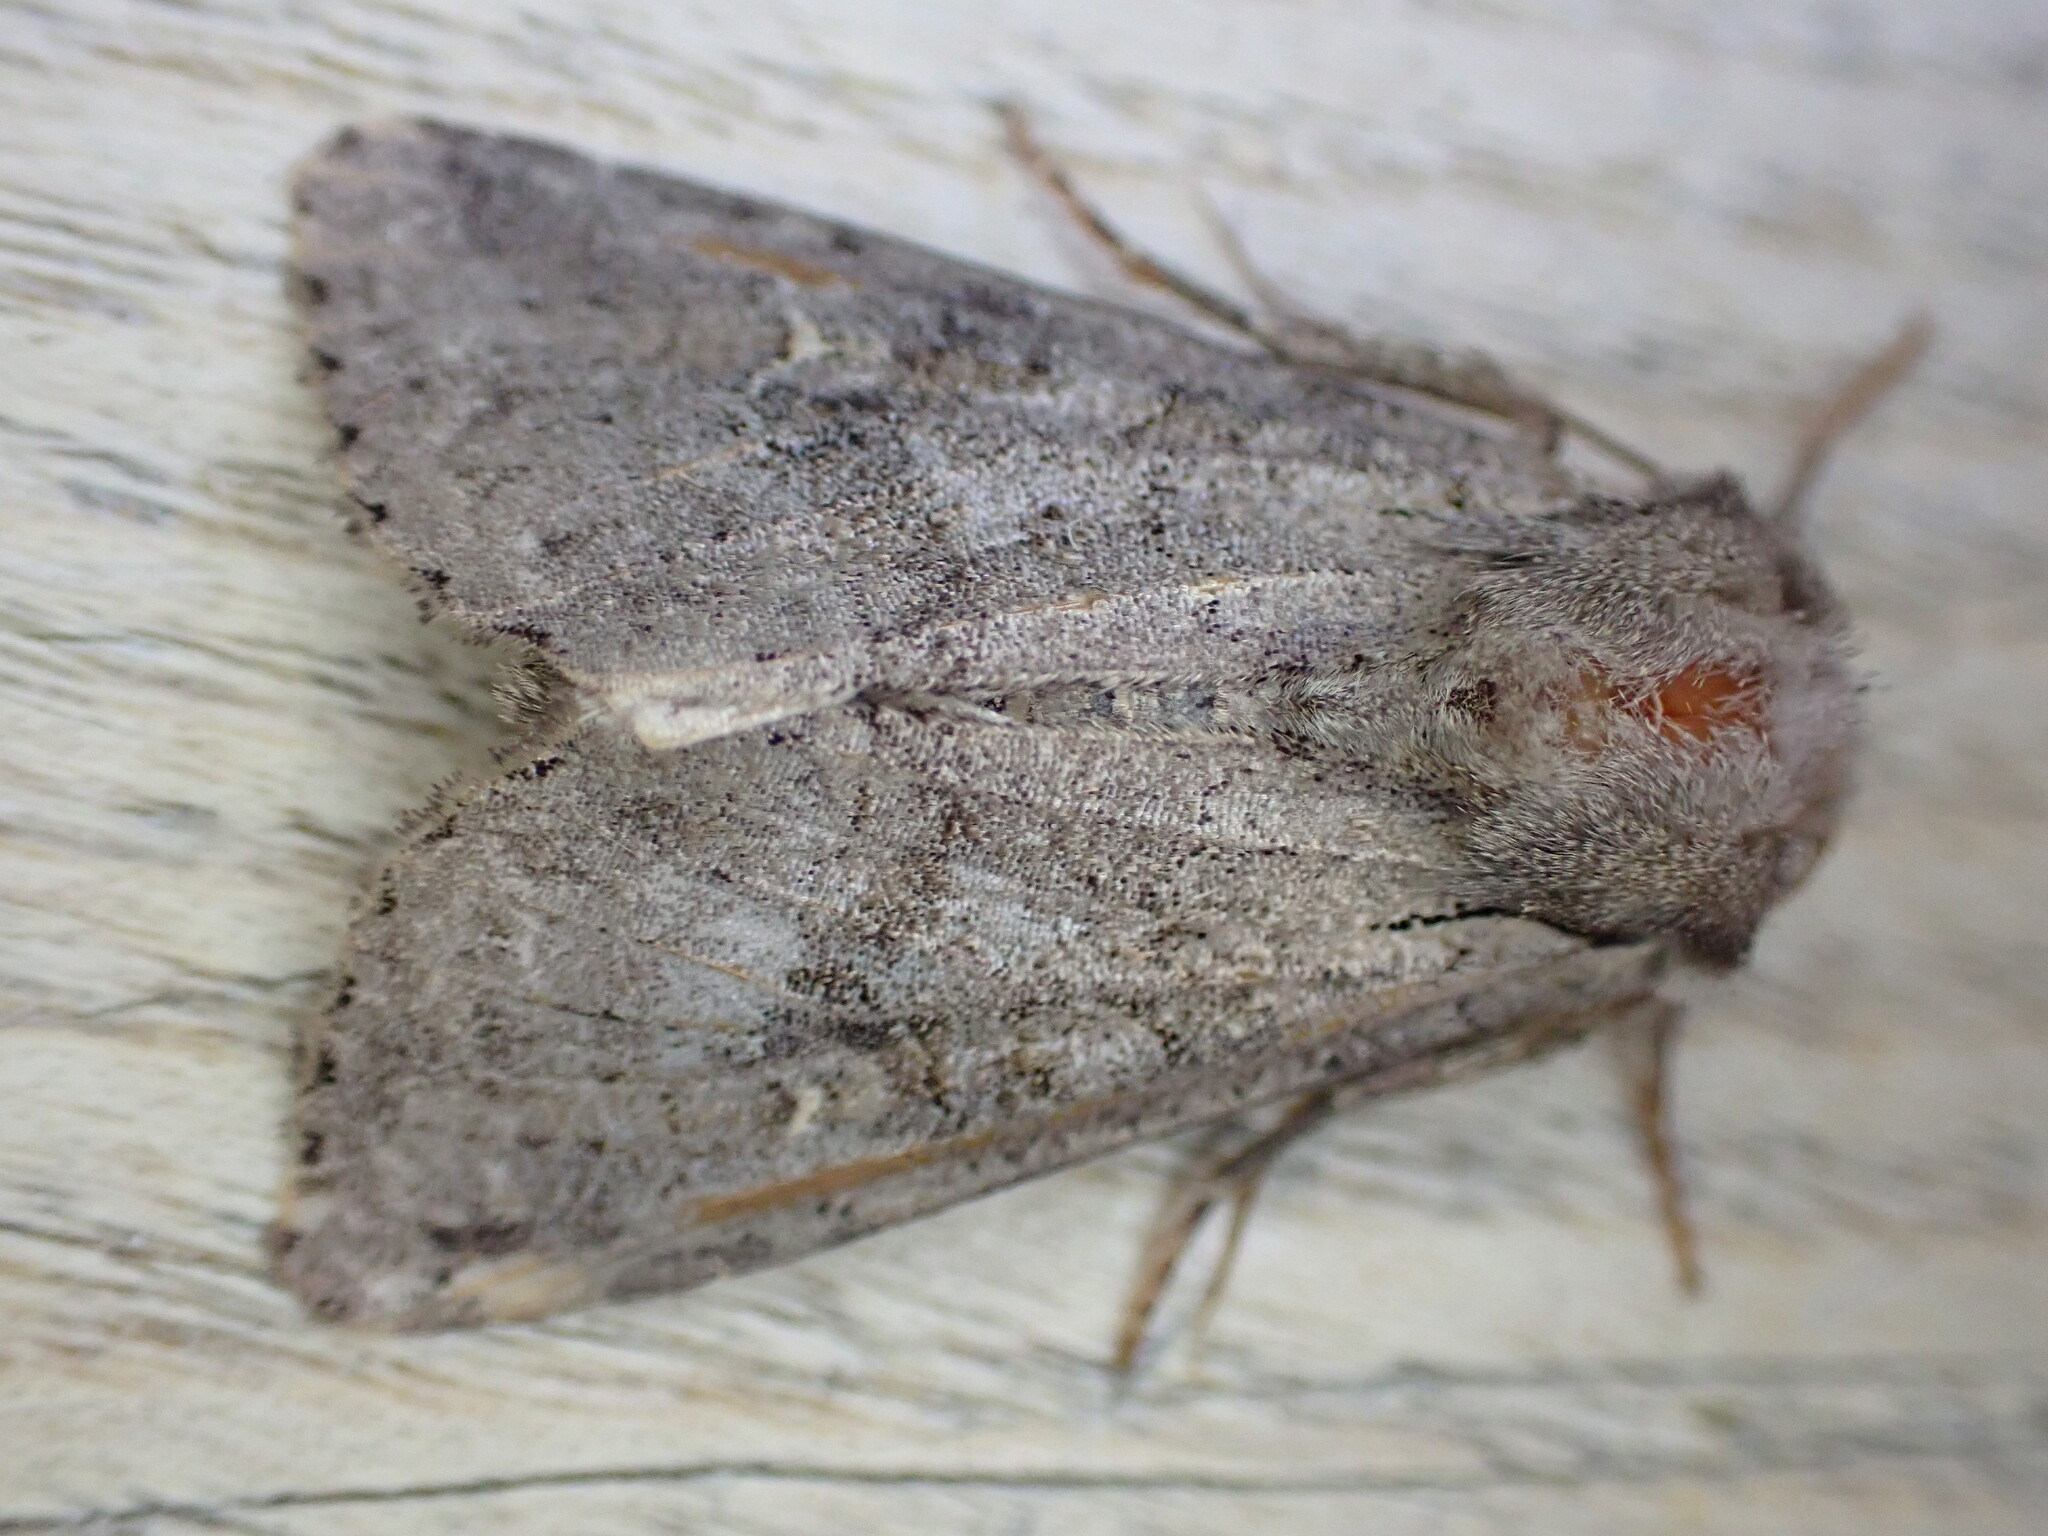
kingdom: Animalia
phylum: Arthropoda
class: Insecta
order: Lepidoptera
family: Noctuidae
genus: Apamea
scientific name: Apamea sordens
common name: Rustic shoulder-knot
